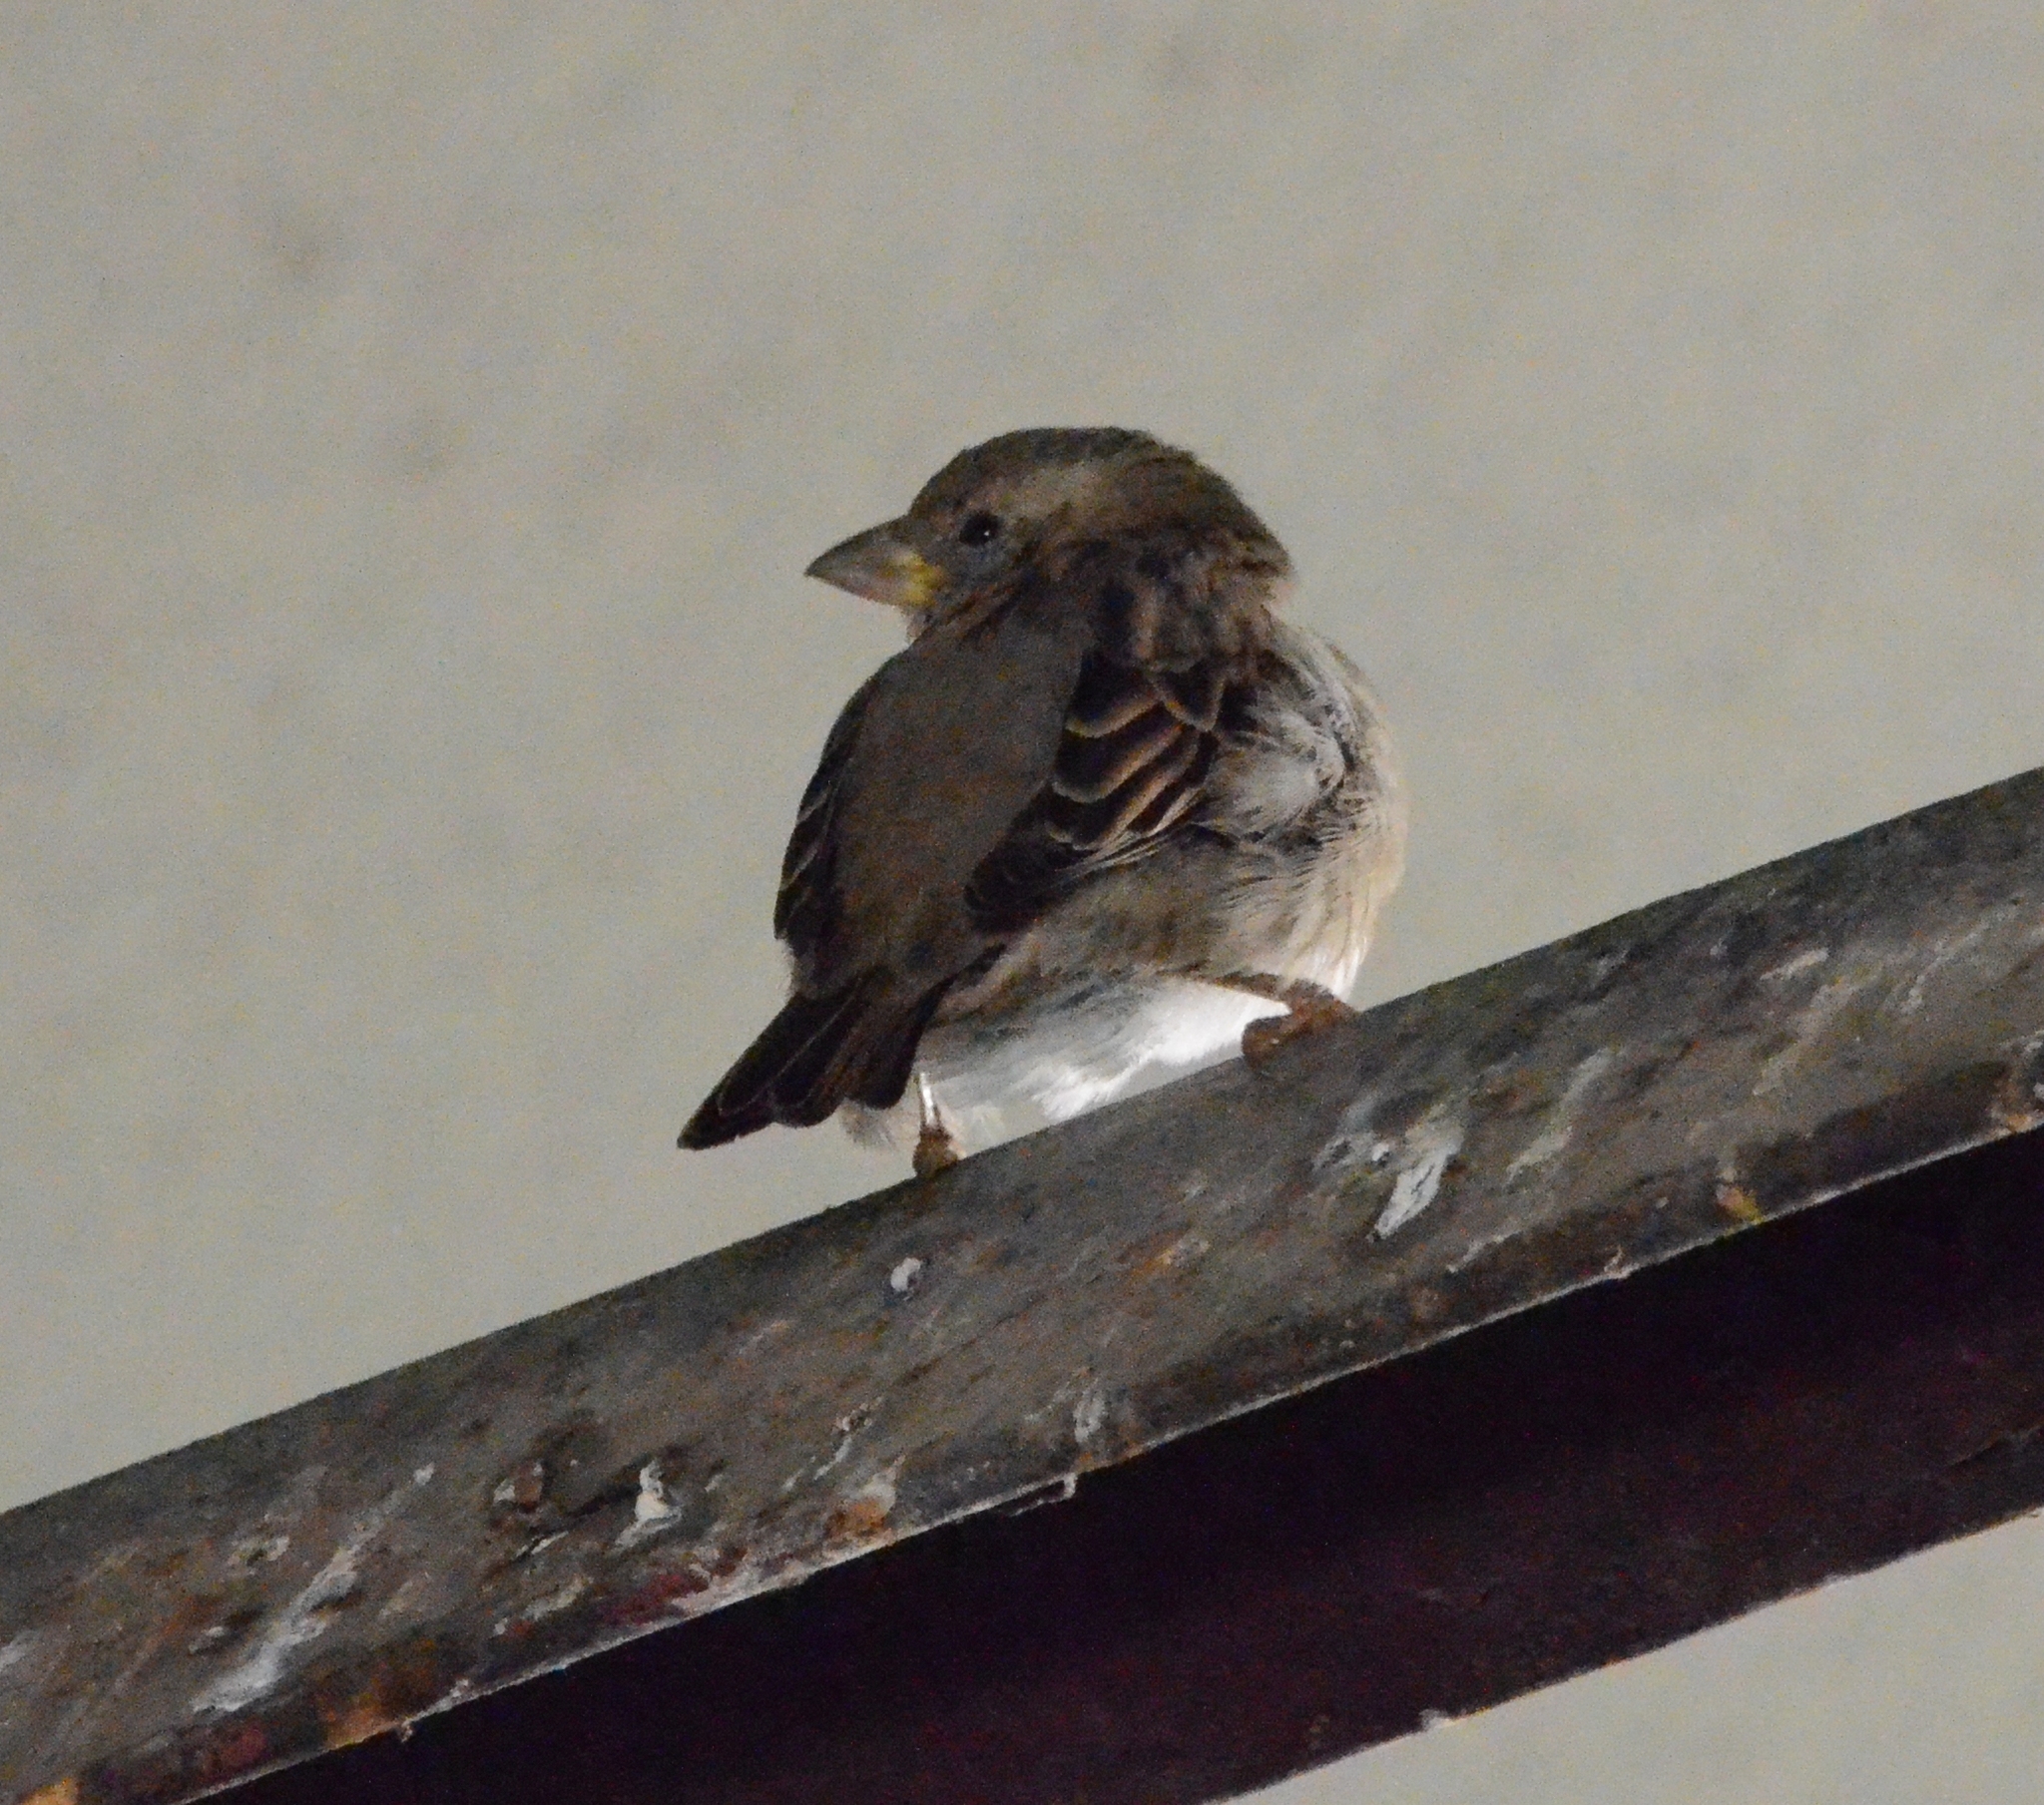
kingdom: Animalia
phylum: Chordata
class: Aves
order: Passeriformes
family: Passeridae
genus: Passer
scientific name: Passer domesticus
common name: House sparrow
